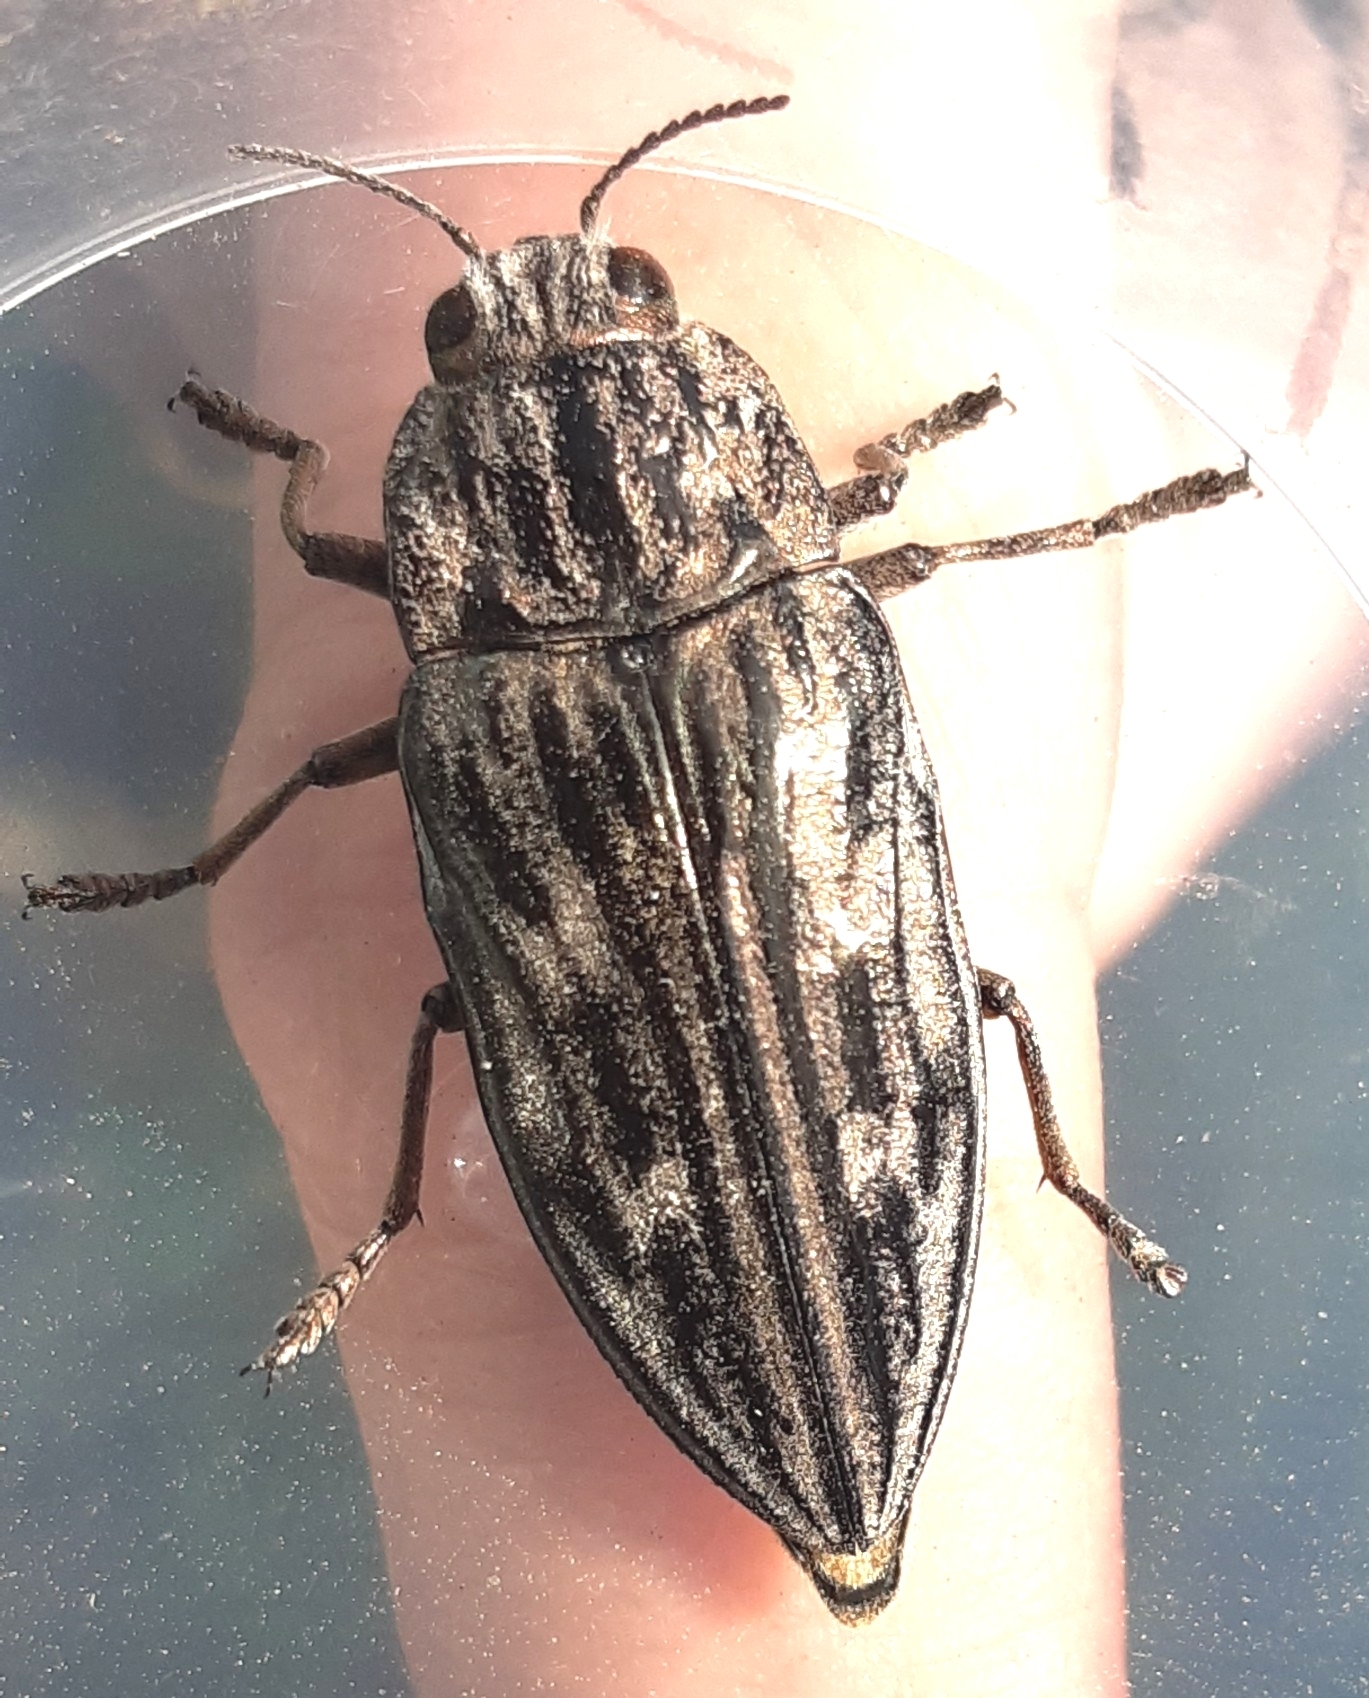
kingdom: Animalia
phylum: Arthropoda
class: Insecta
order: Coleoptera
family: Buprestidae
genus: Chalcophora
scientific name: Chalcophora mariana
